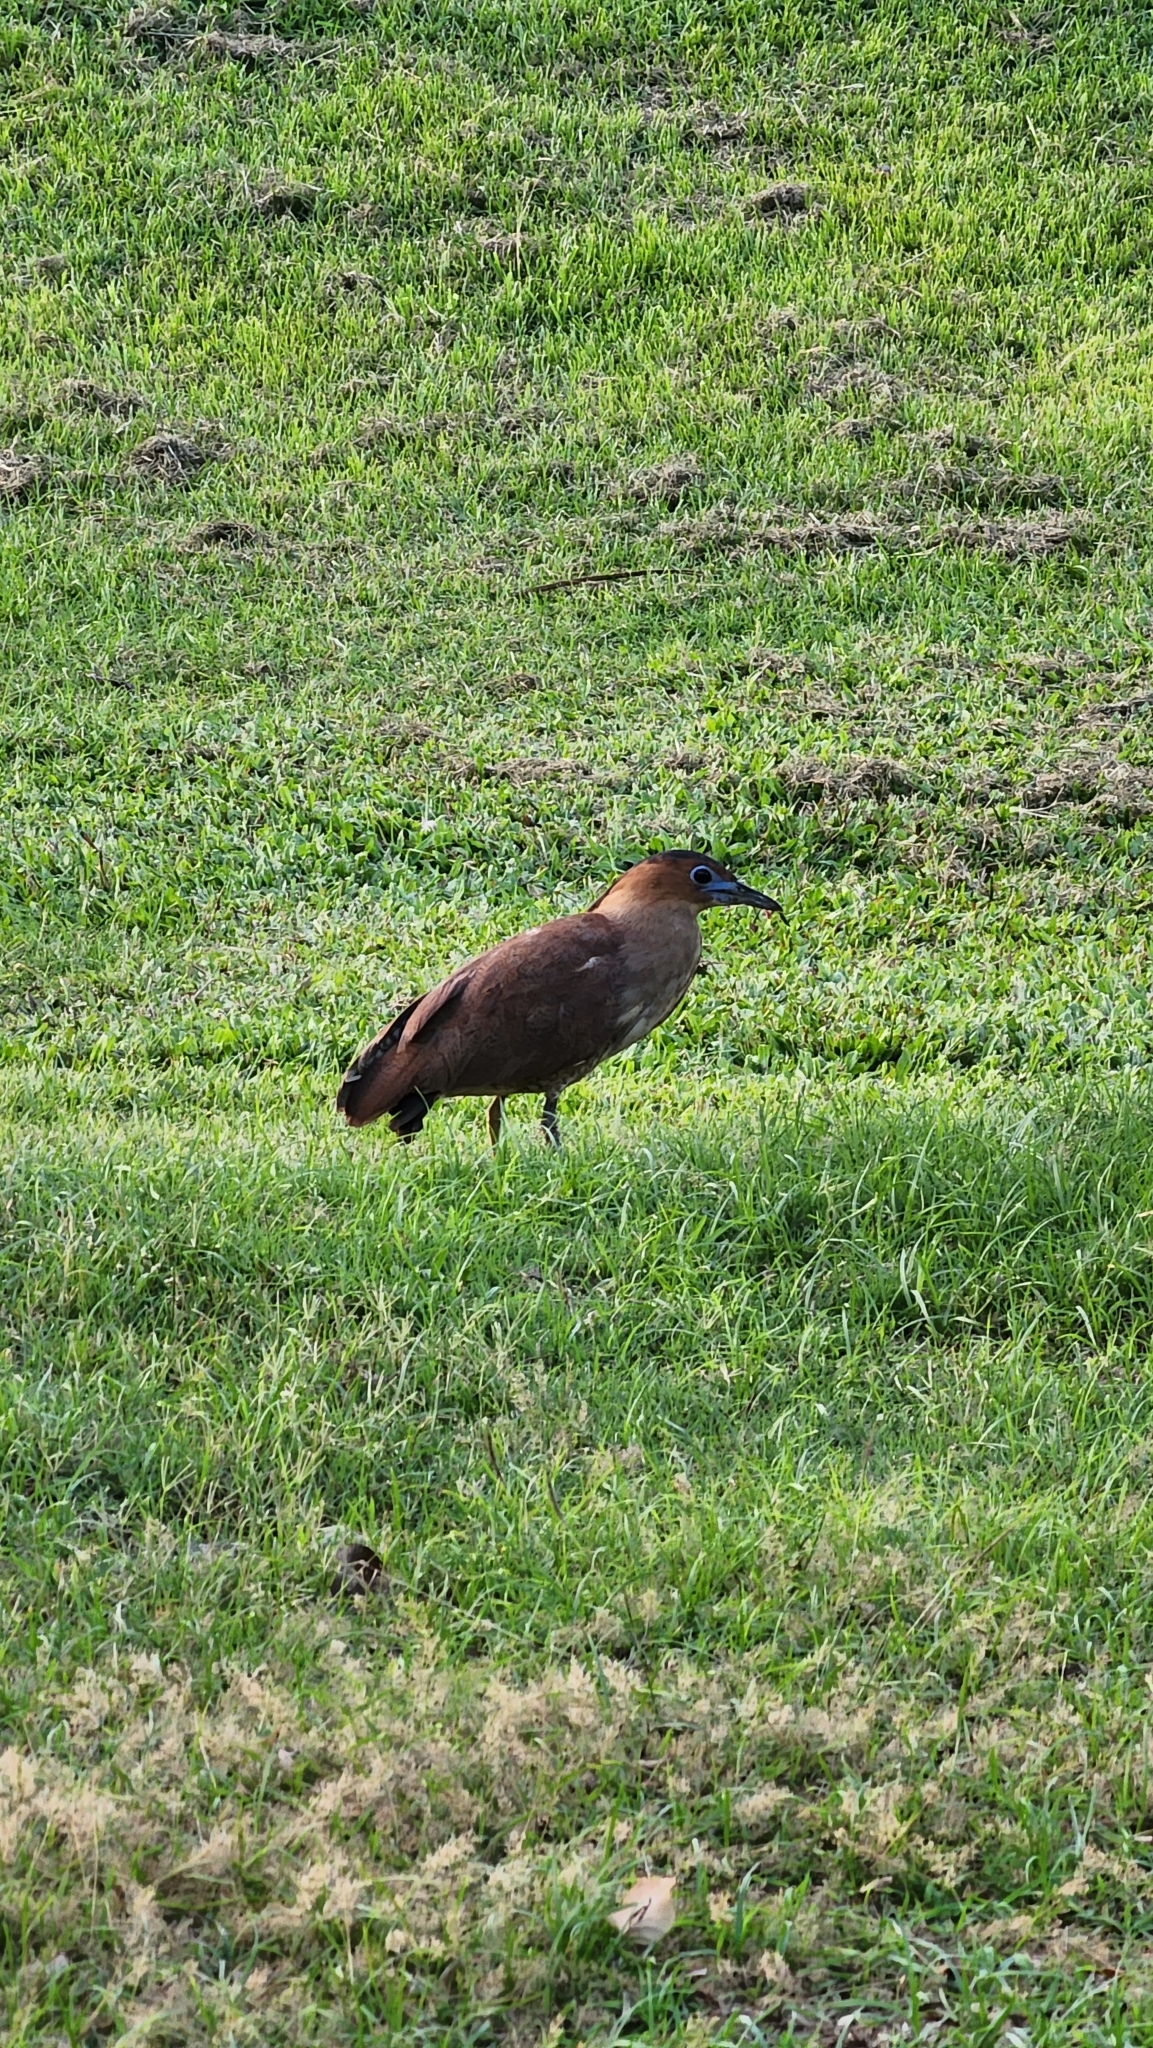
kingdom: Animalia
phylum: Chordata
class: Aves
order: Pelecaniformes
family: Ardeidae
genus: Gorsachius
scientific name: Gorsachius melanolophus
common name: Malayan night heron
